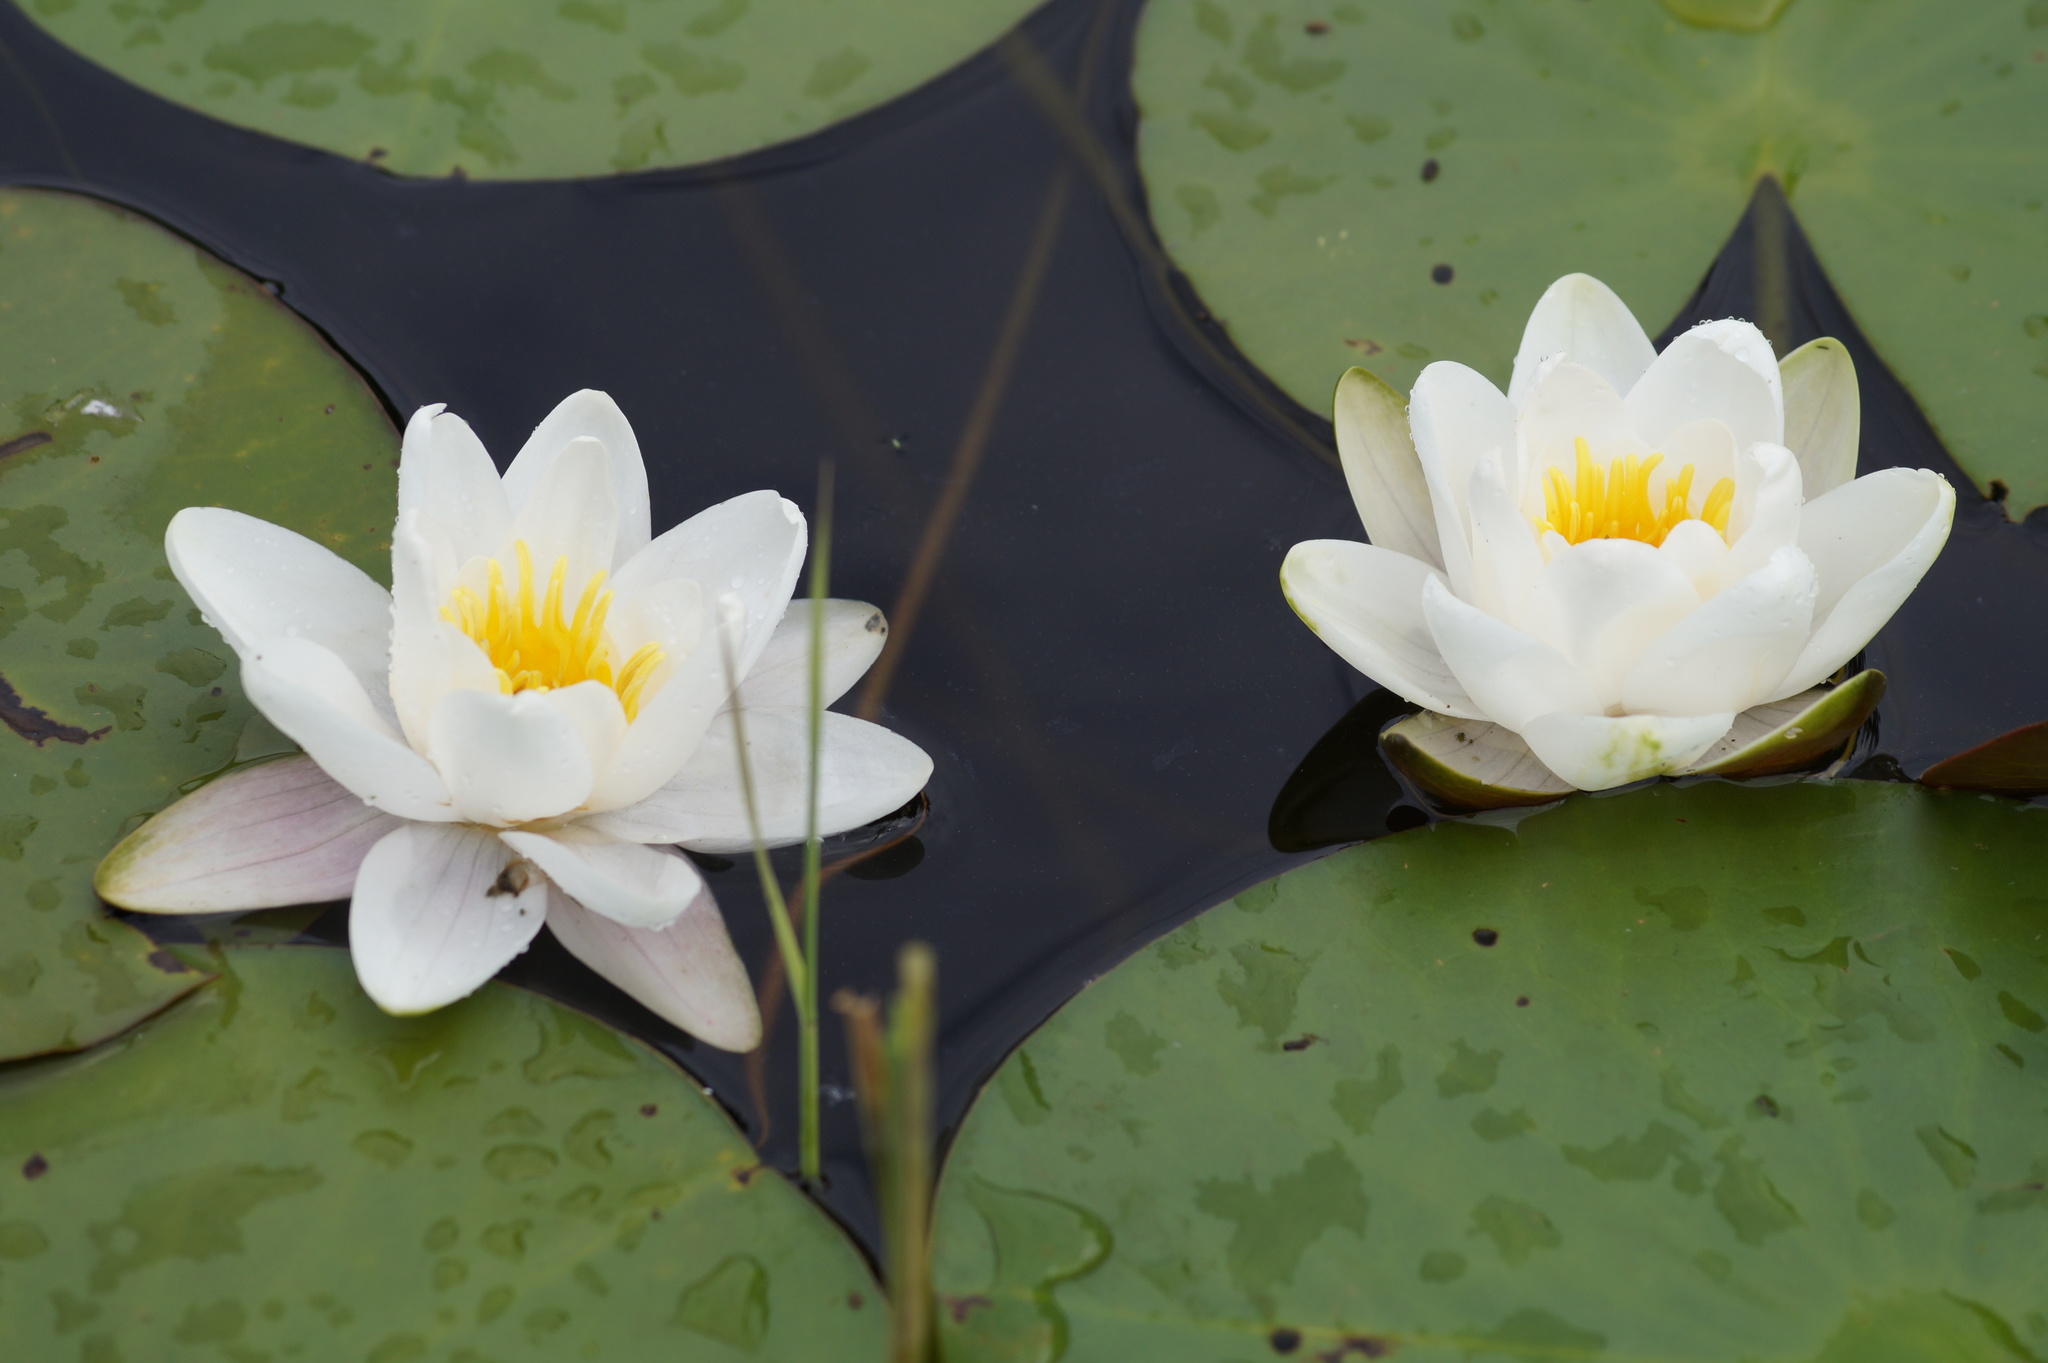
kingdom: Plantae
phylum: Tracheophyta
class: Magnoliopsida
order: Nymphaeales
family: Nymphaeaceae
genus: Nymphaea
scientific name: Nymphaea alba
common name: White water-lily
